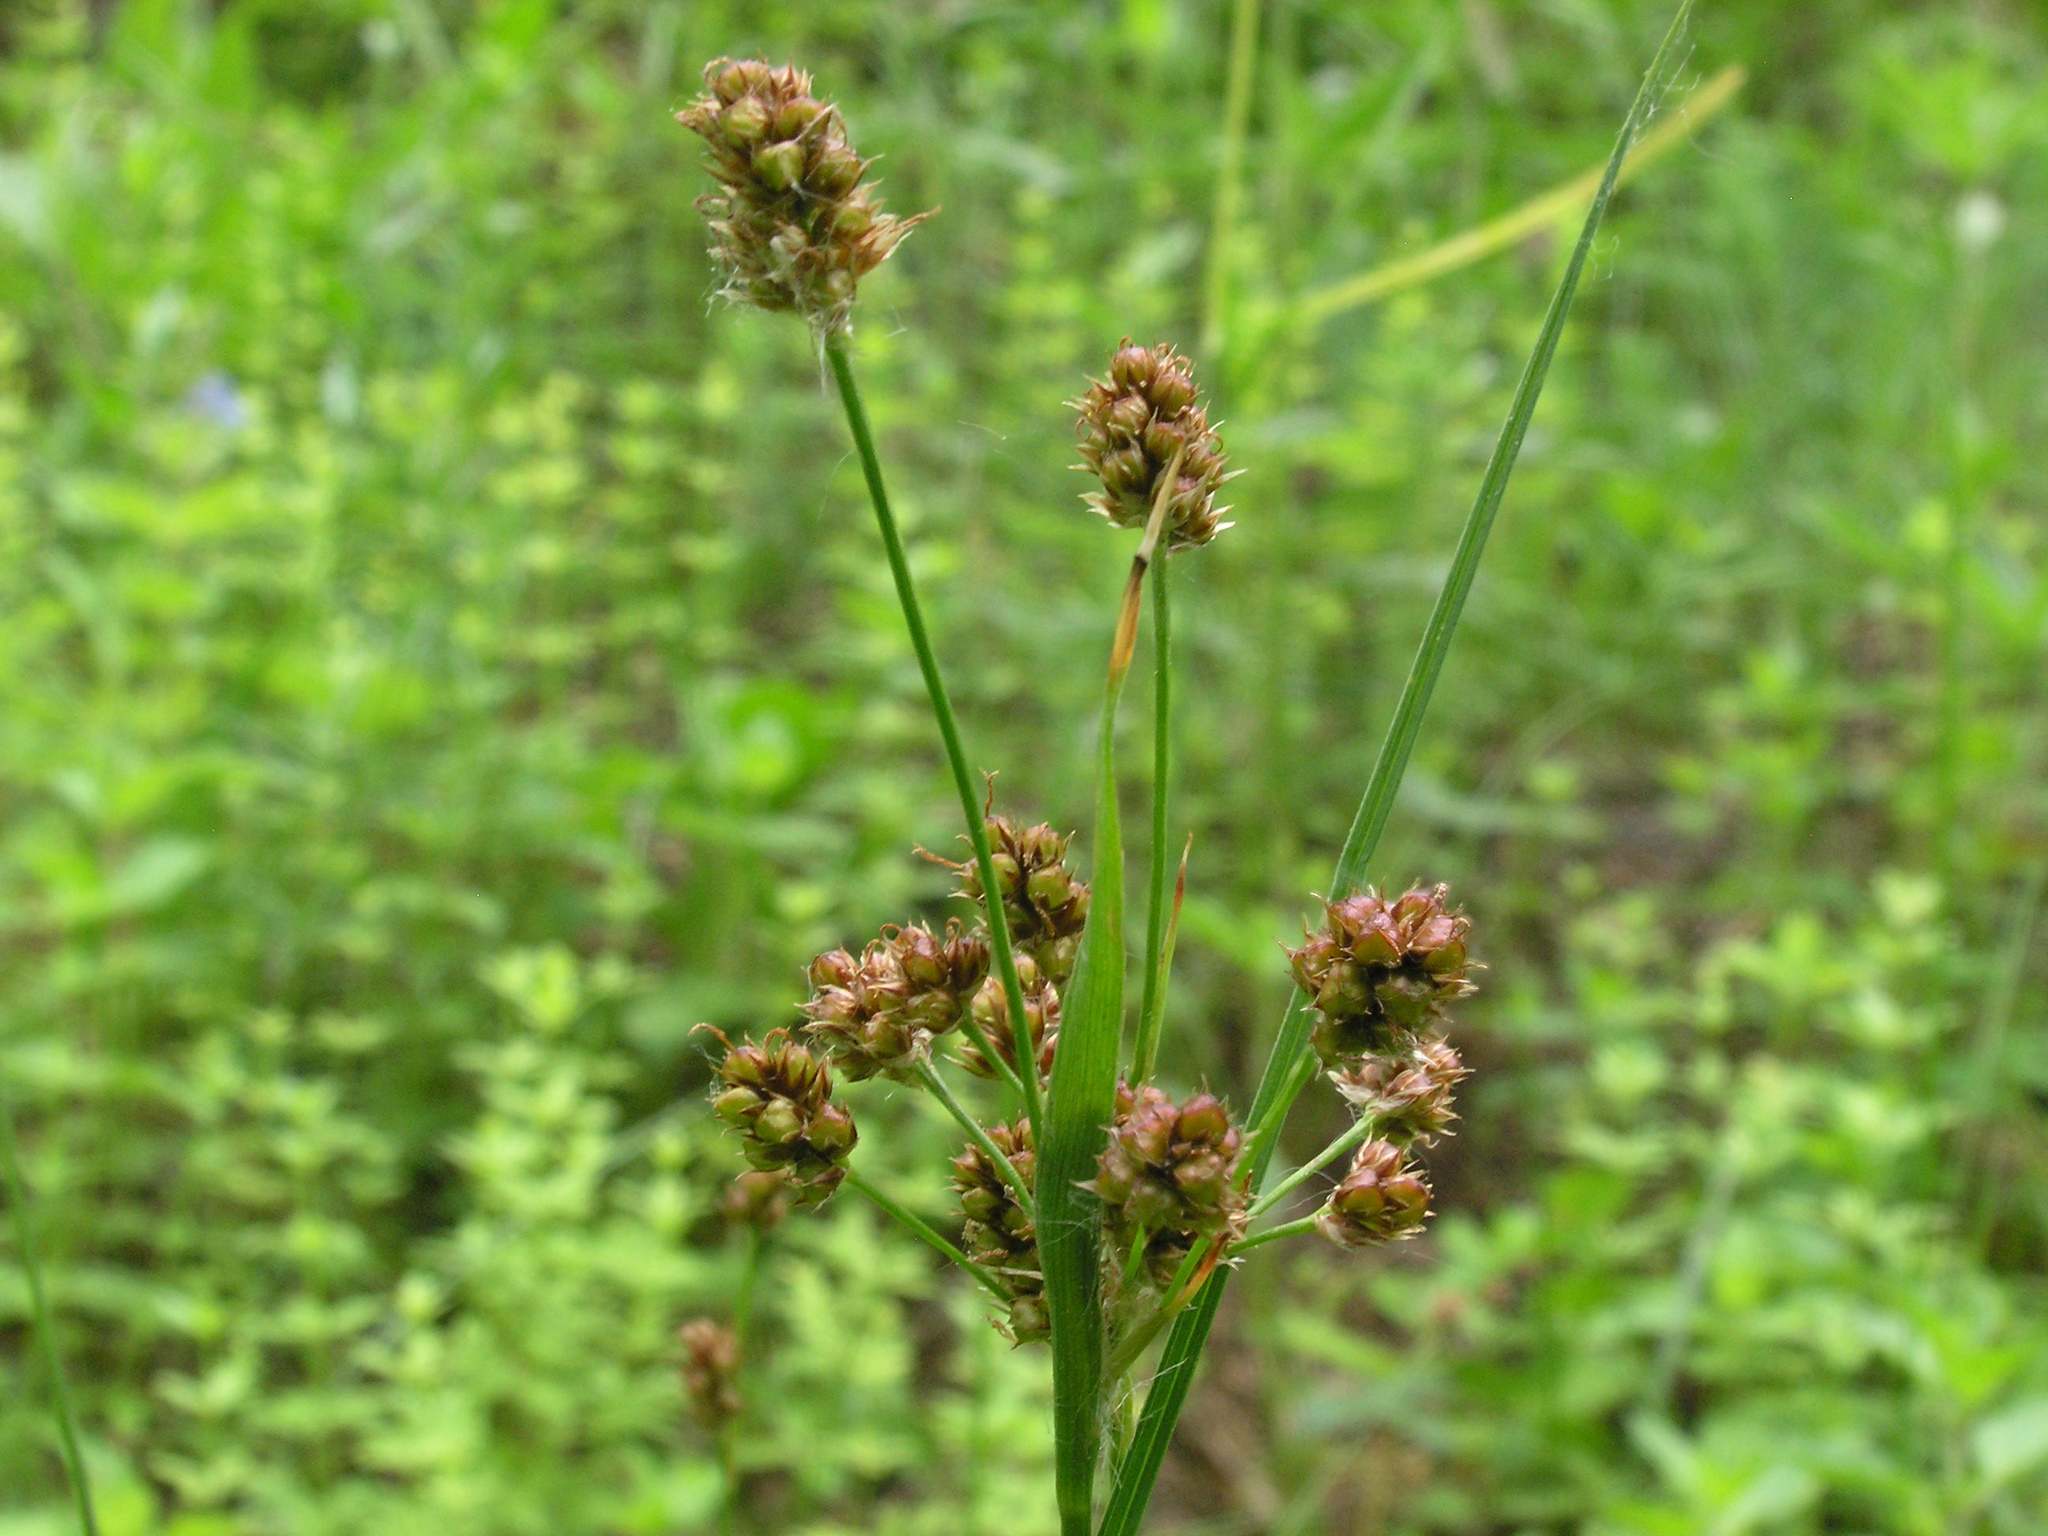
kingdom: Plantae
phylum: Tracheophyta
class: Liliopsida
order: Poales
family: Juncaceae
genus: Luzula
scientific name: Luzula multiflora
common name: Heath wood-rush
